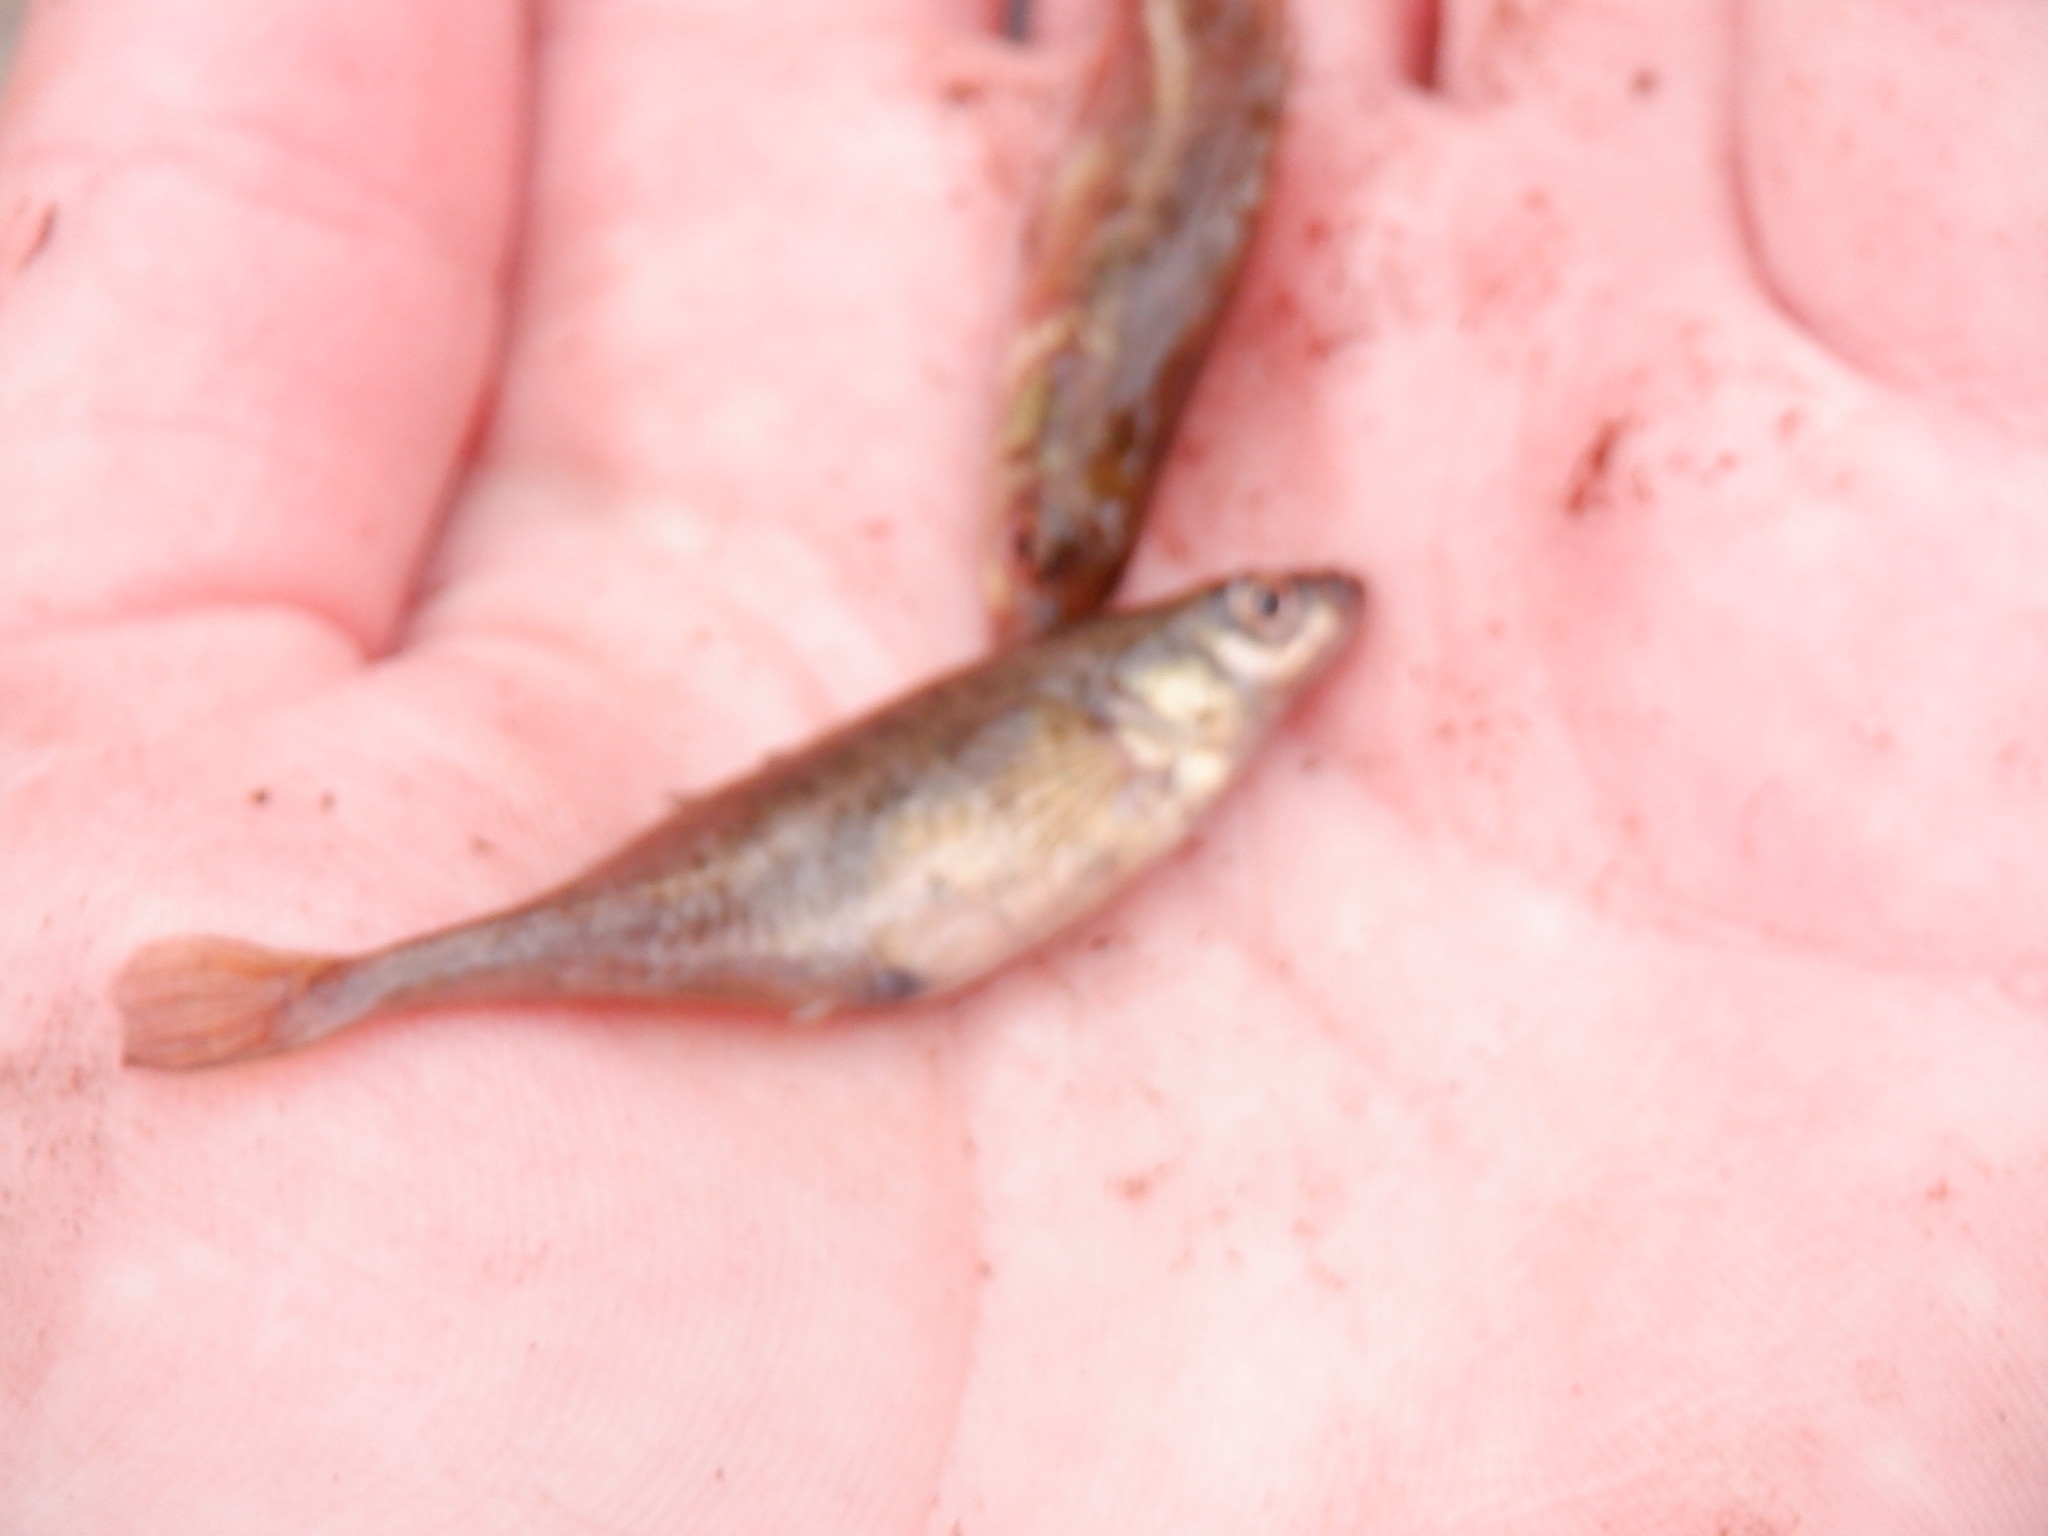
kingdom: Animalia
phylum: Chordata
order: Gasterosteiformes
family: Gasterosteidae
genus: Culaea
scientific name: Culaea inconstans
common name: Brook stickleback
